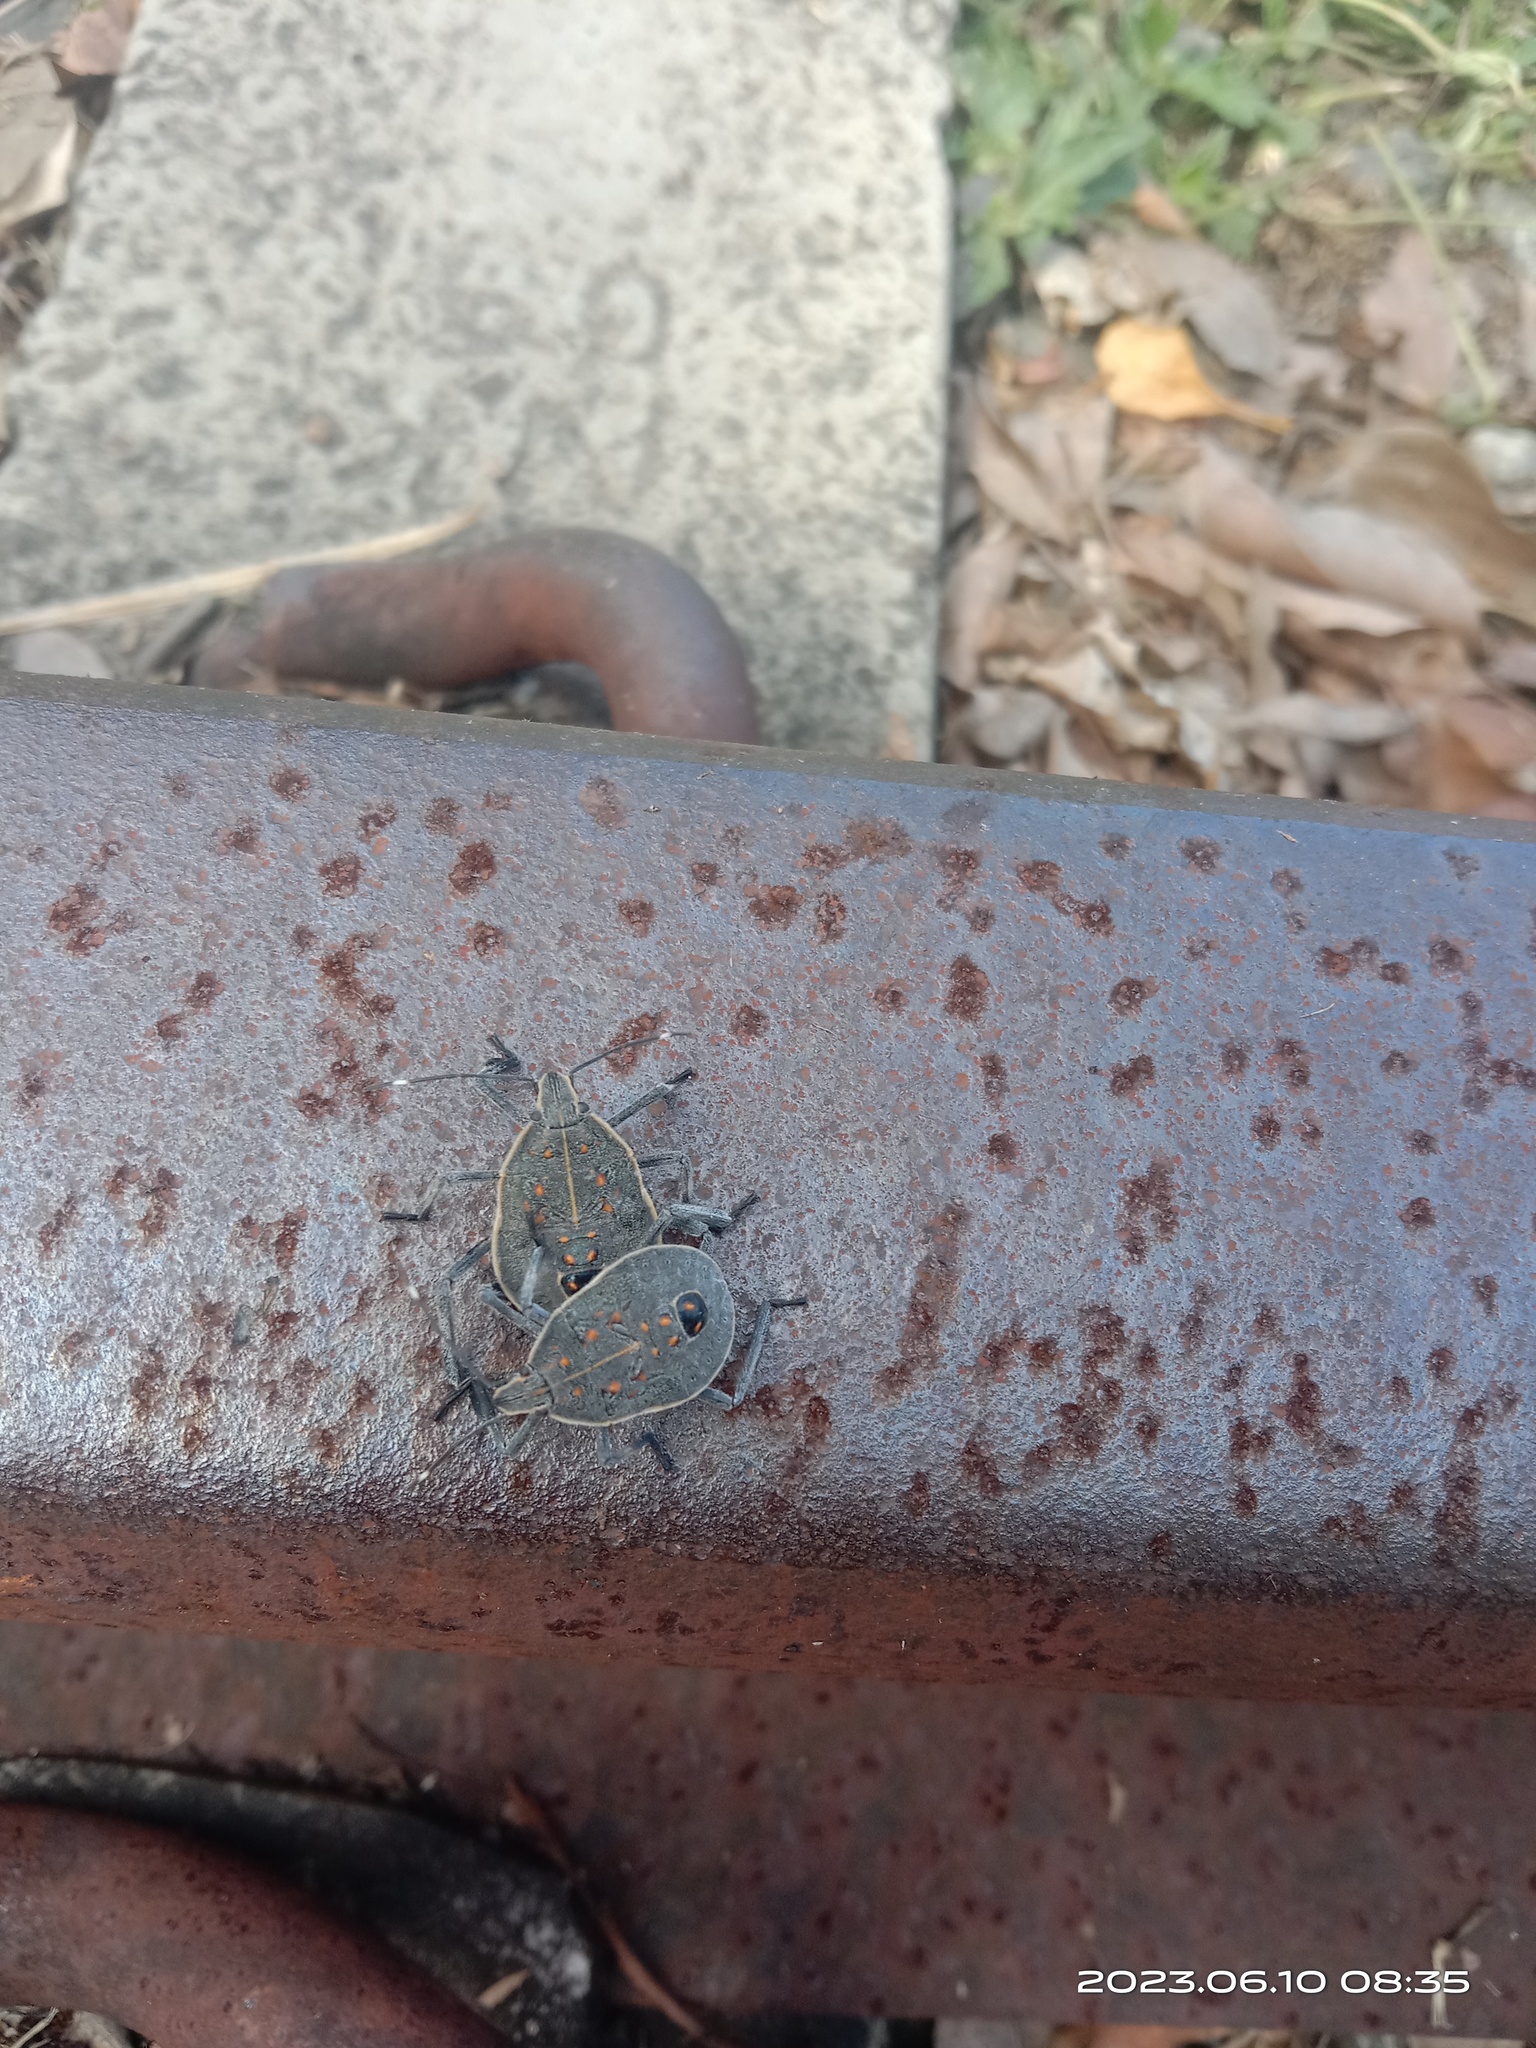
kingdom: Animalia
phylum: Arthropoda
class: Insecta
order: Hemiptera
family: Pentatomidae
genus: Erthesina
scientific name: Erthesina fullo
